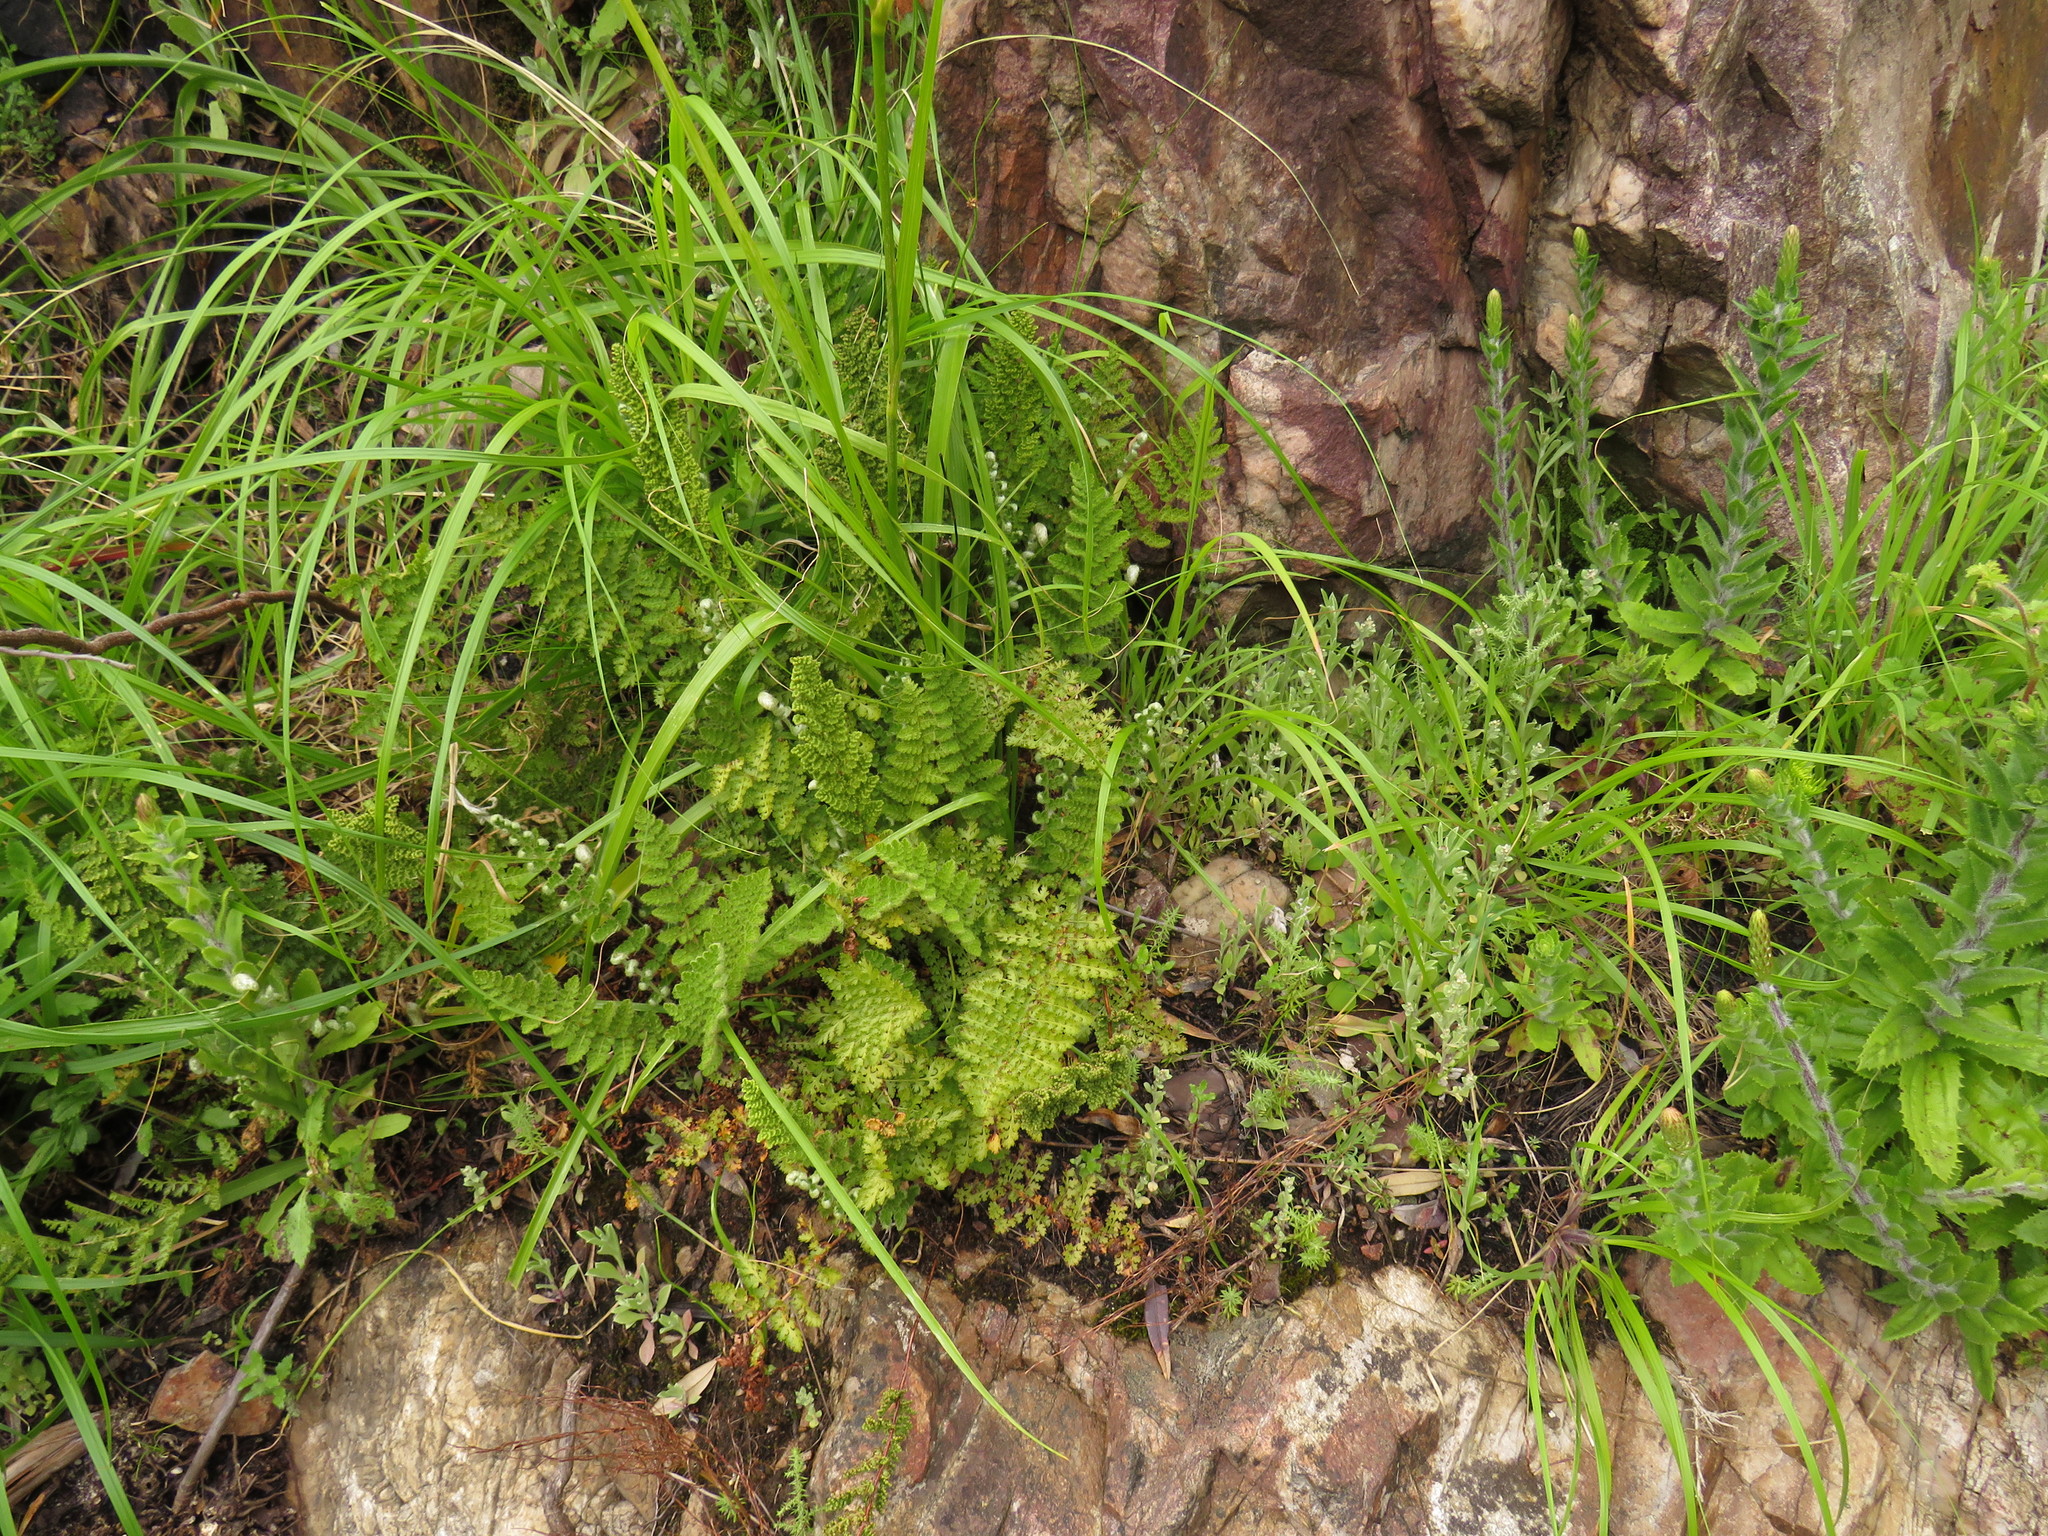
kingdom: Plantae
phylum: Tracheophyta
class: Polypodiopsida
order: Schizaeales
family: Anemiaceae
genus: Anemia
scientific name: Anemia caffrorum
